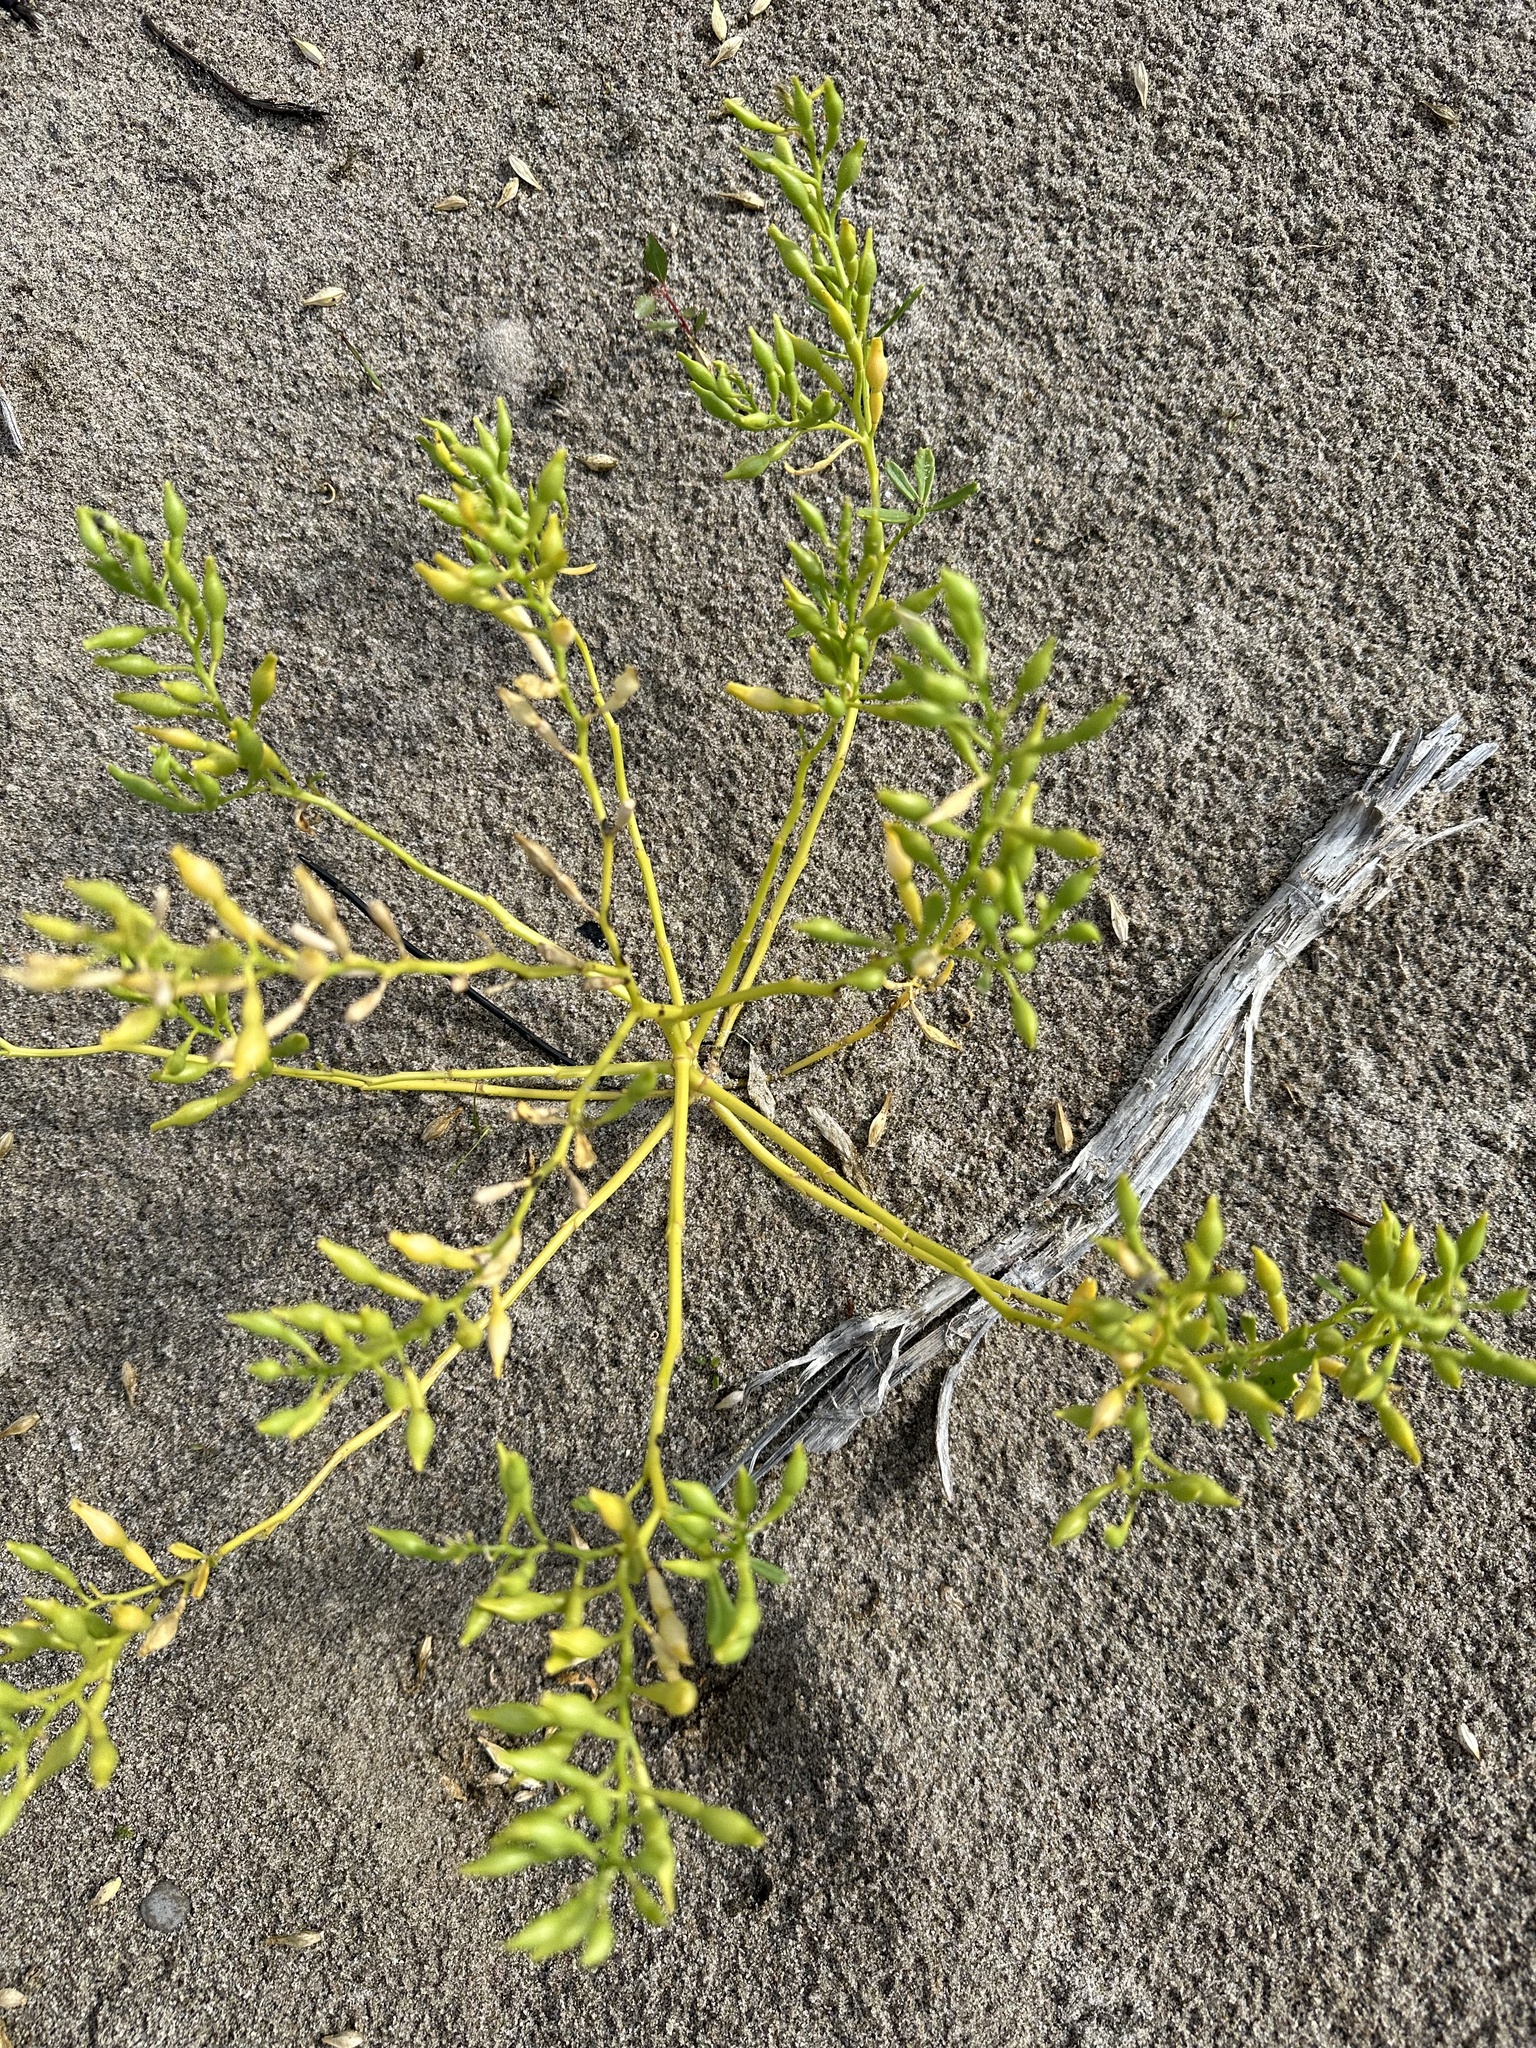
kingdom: Plantae
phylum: Tracheophyta
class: Magnoliopsida
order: Brassicales
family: Brassicaceae
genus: Cakile
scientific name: Cakile edentula
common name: American sea rocket
